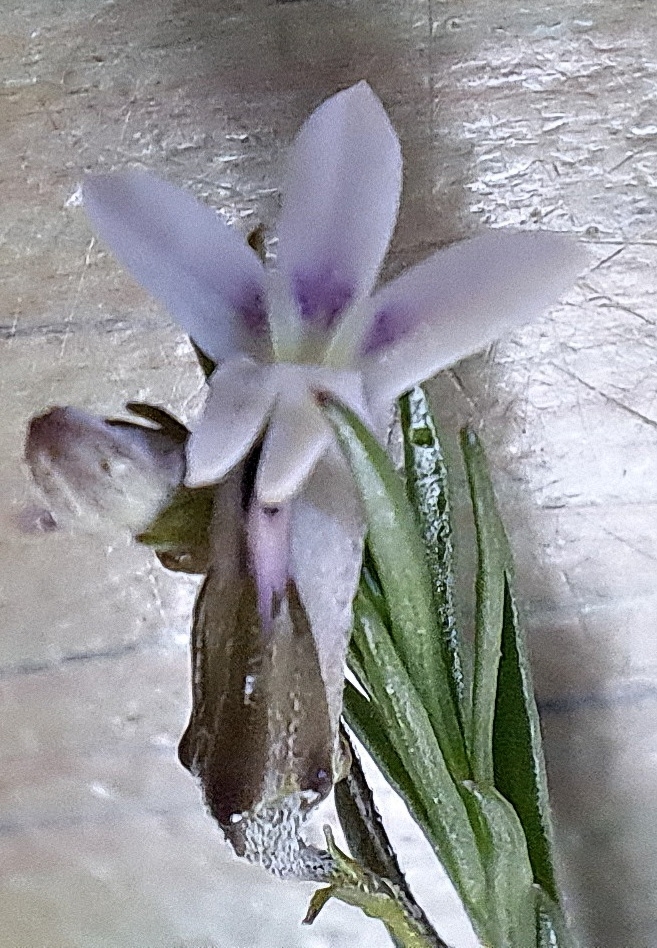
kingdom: Plantae
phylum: Tracheophyta
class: Magnoliopsida
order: Asterales
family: Campanulaceae
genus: Lobelia
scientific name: Lobelia pinifolia
